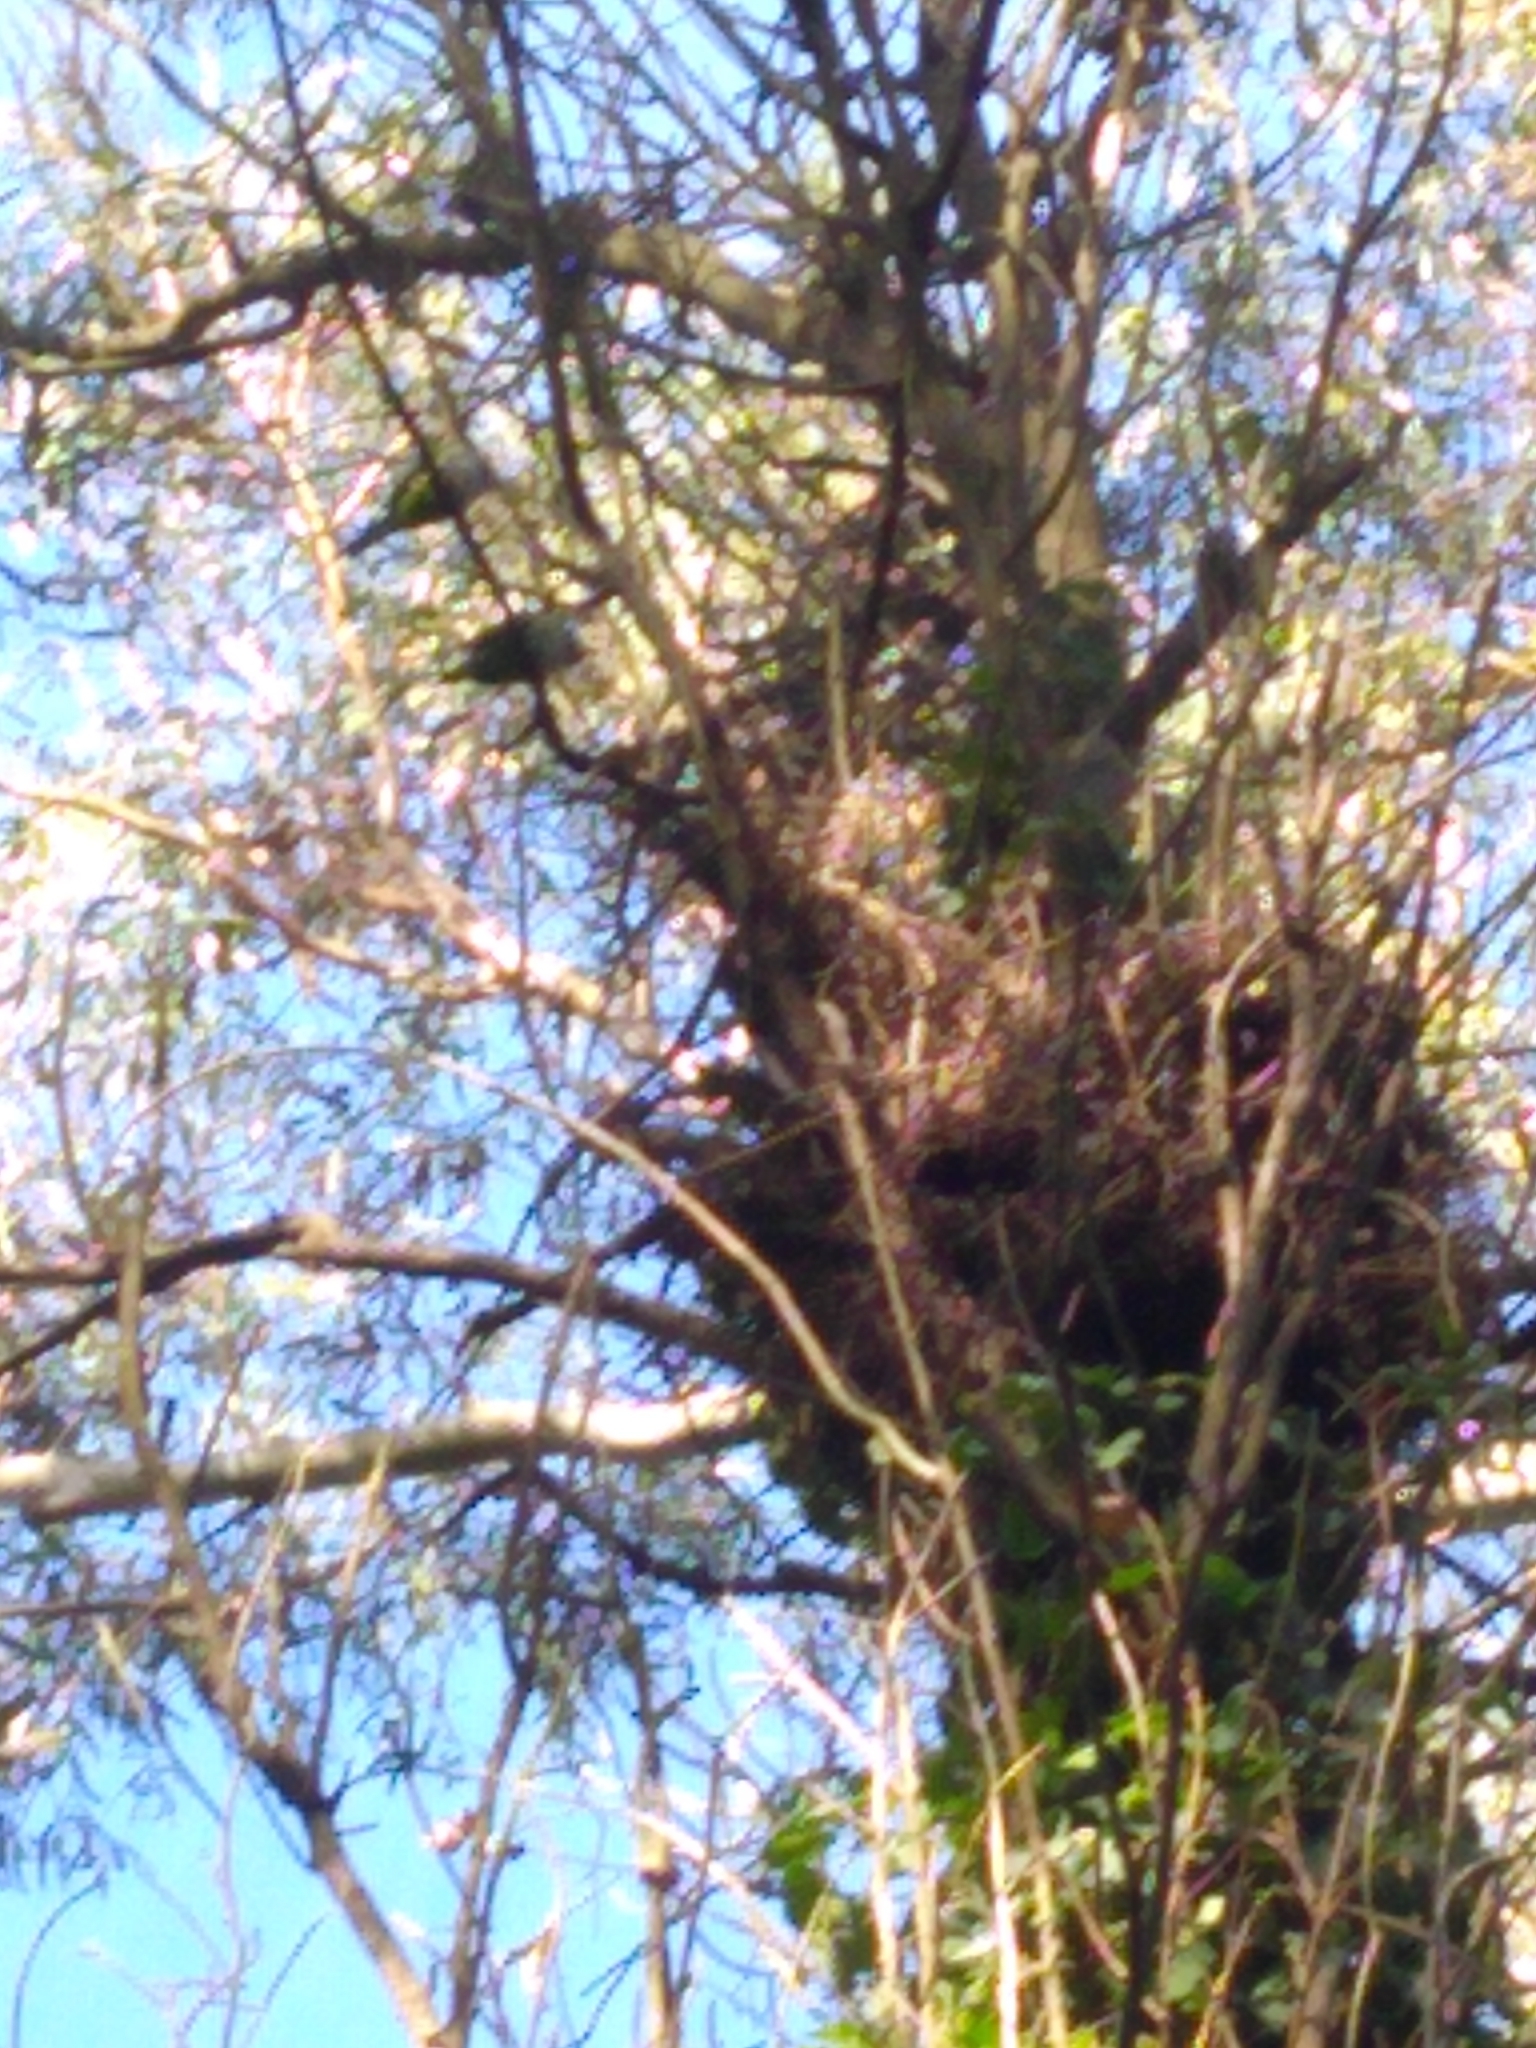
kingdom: Animalia
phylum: Chordata
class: Aves
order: Psittaciformes
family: Psittacidae
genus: Myiopsitta
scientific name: Myiopsitta monachus
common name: Monk parakeet
